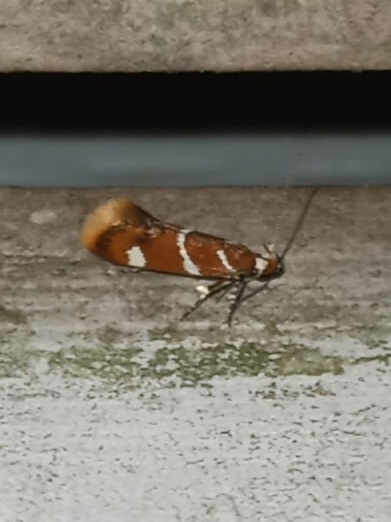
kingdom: Animalia
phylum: Arthropoda
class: Insecta
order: Lepidoptera
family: Oecophoridae
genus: Promalactis
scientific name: Promalactis suzukiella
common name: Moth
